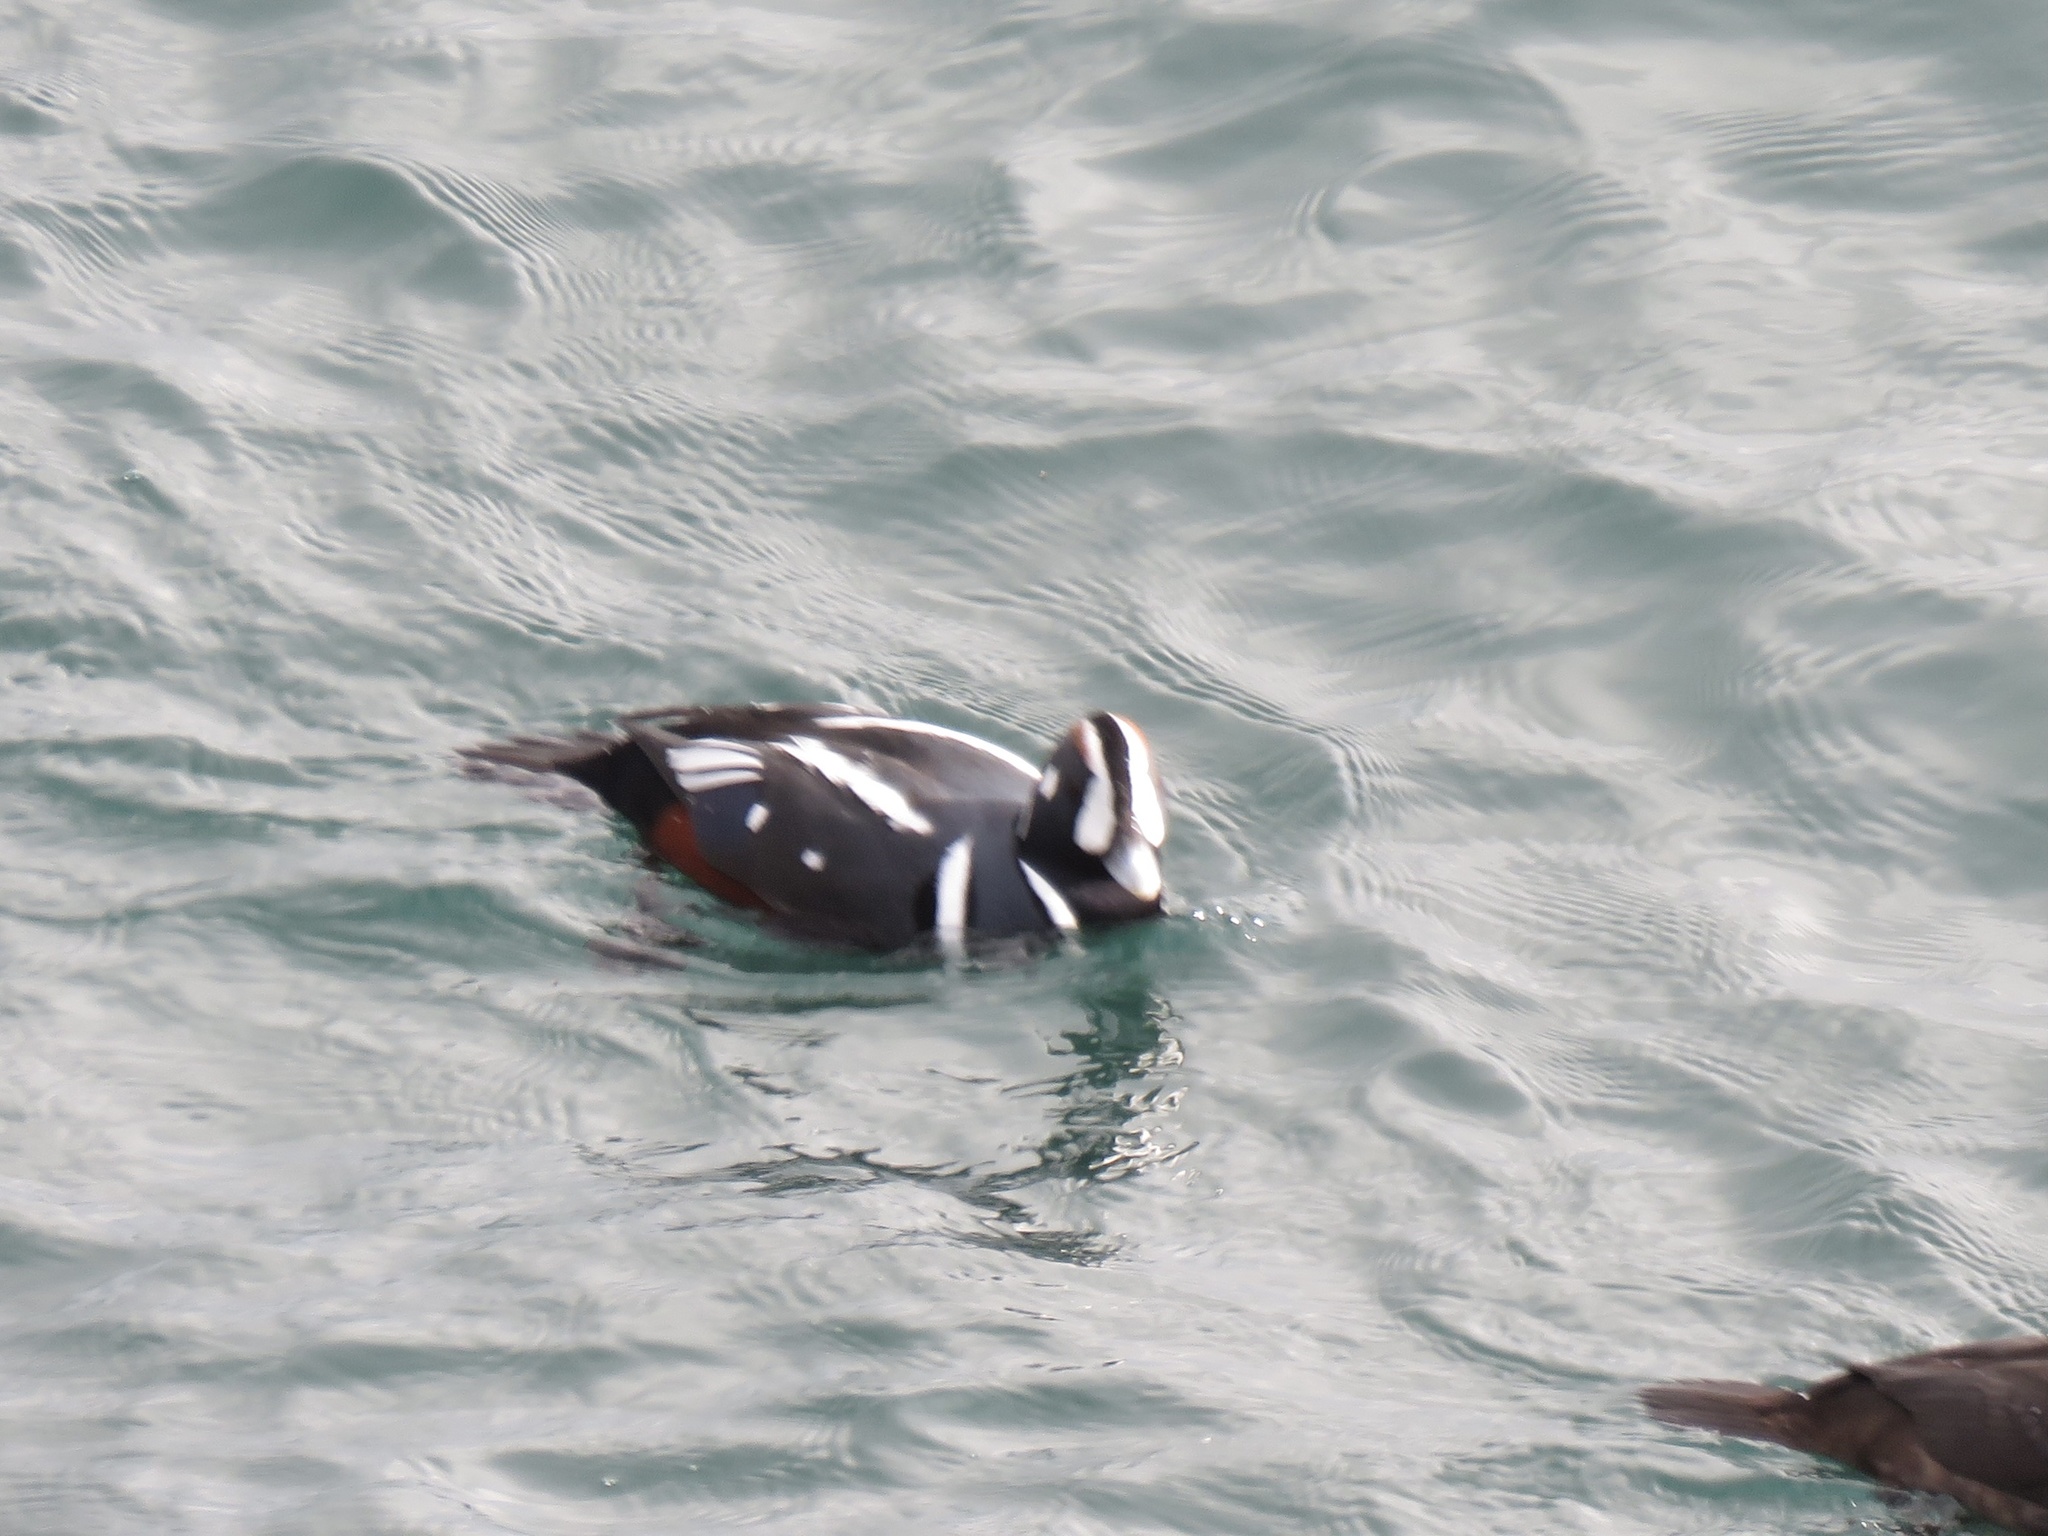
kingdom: Animalia
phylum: Chordata
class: Aves
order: Anseriformes
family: Anatidae
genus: Histrionicus
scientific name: Histrionicus histrionicus
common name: Harlequin duck
